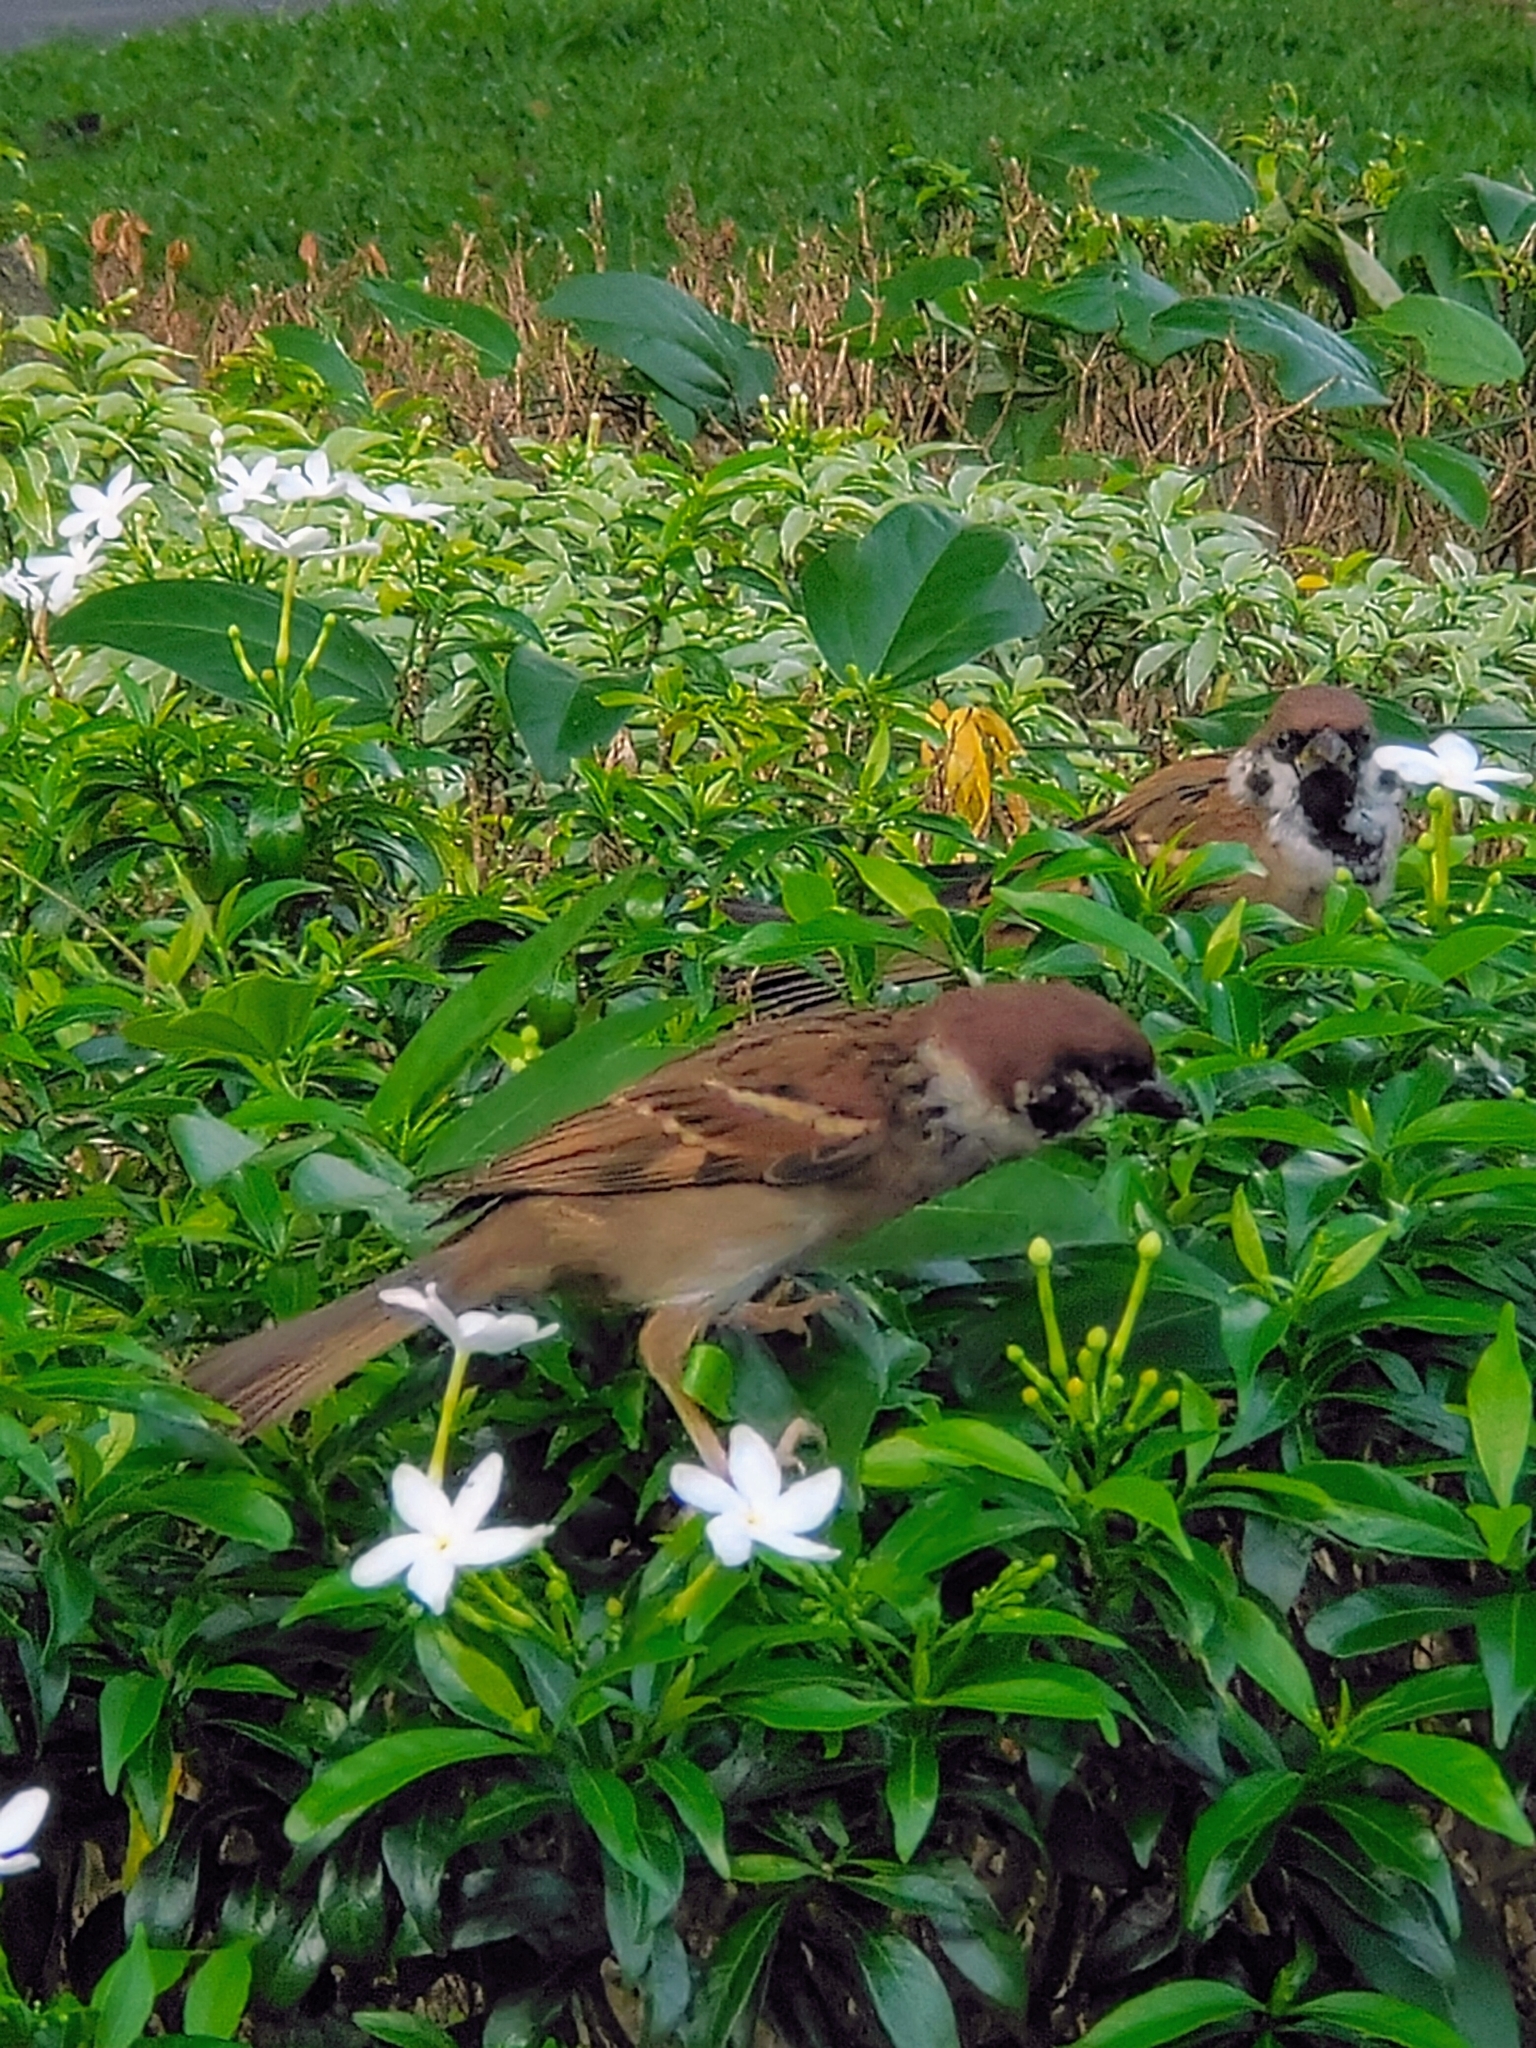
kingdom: Animalia
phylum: Chordata
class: Aves
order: Passeriformes
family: Passeridae
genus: Passer
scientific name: Passer montanus
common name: Eurasian tree sparrow
